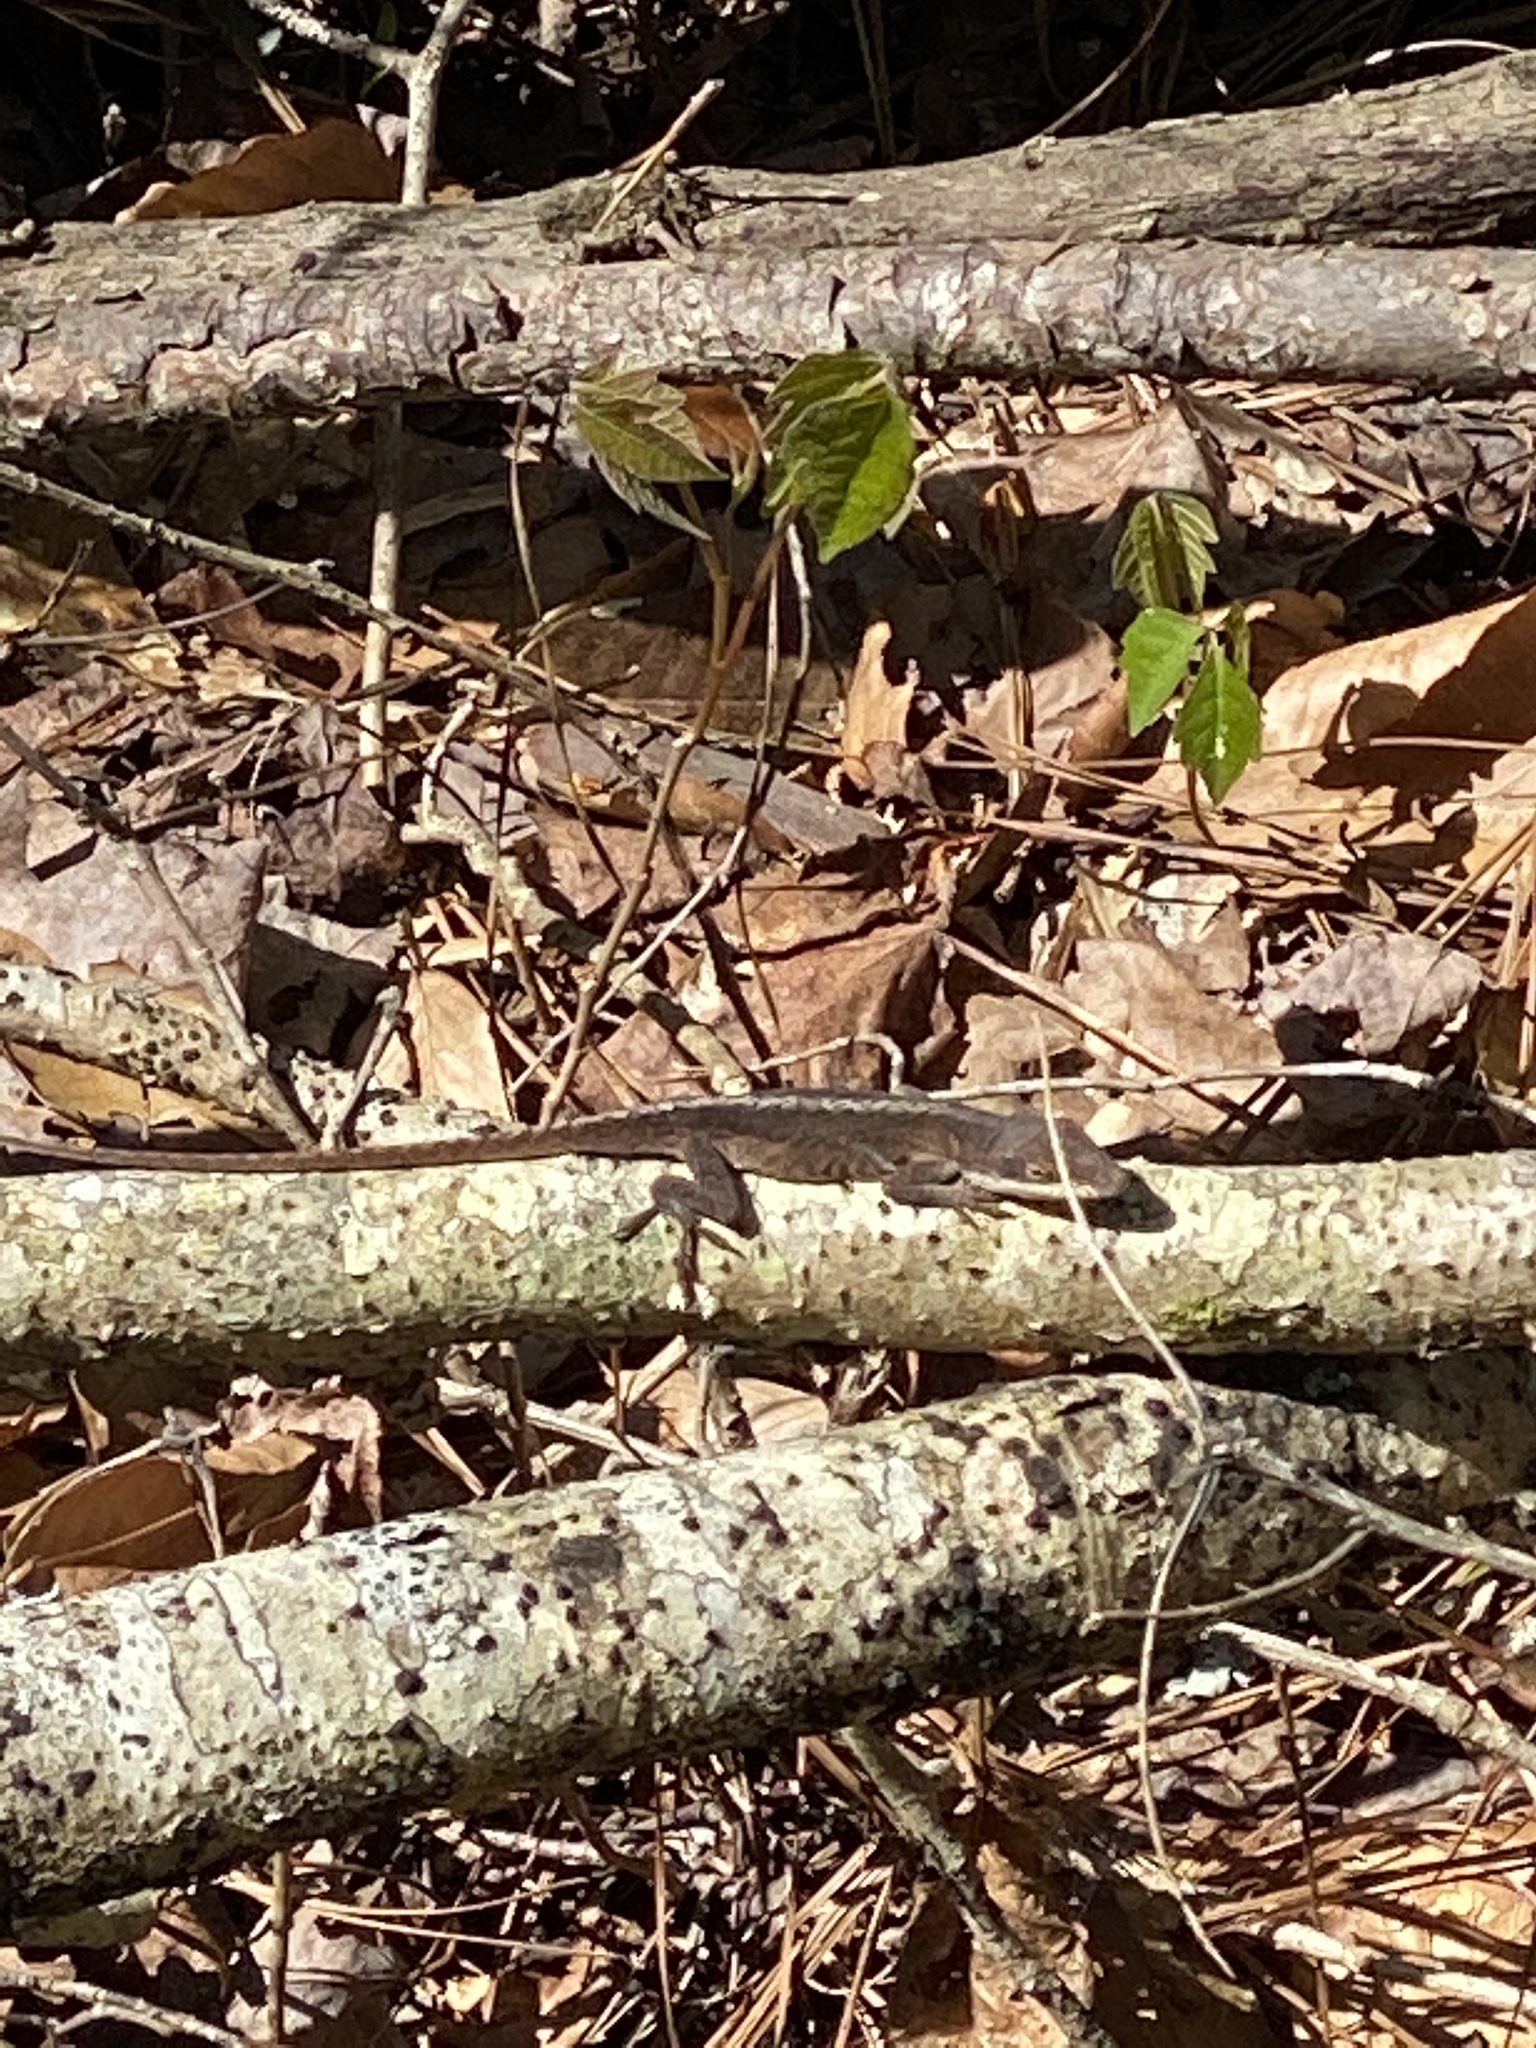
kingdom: Animalia
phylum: Chordata
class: Squamata
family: Dactyloidae
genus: Anolis
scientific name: Anolis carolinensis
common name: Green anole
